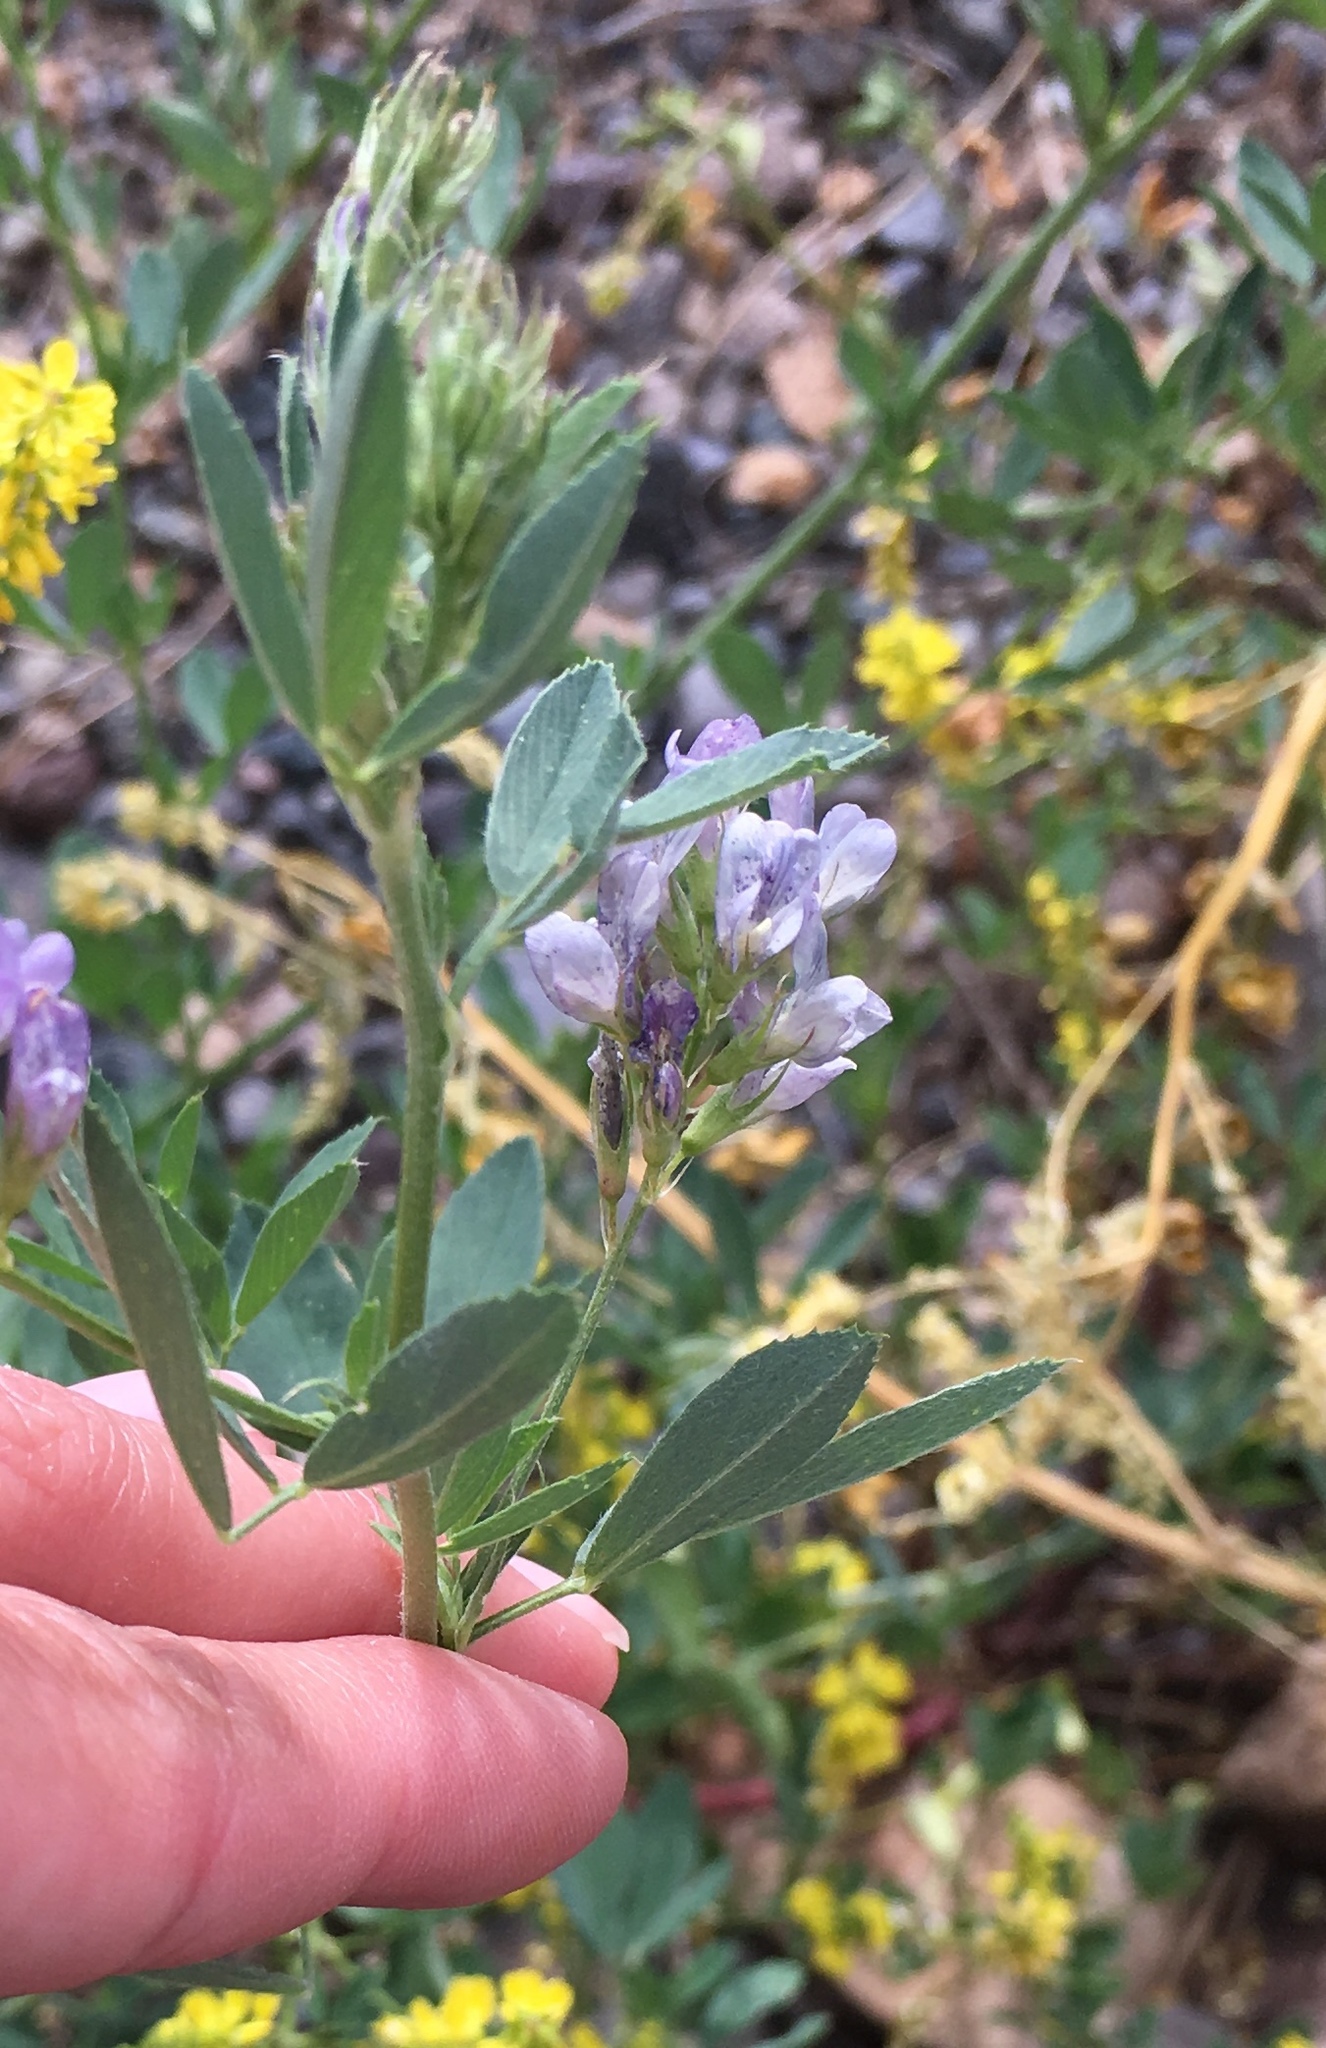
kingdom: Plantae
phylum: Tracheophyta
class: Magnoliopsida
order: Fabales
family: Fabaceae
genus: Medicago
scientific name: Medicago sativa
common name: Alfalfa
